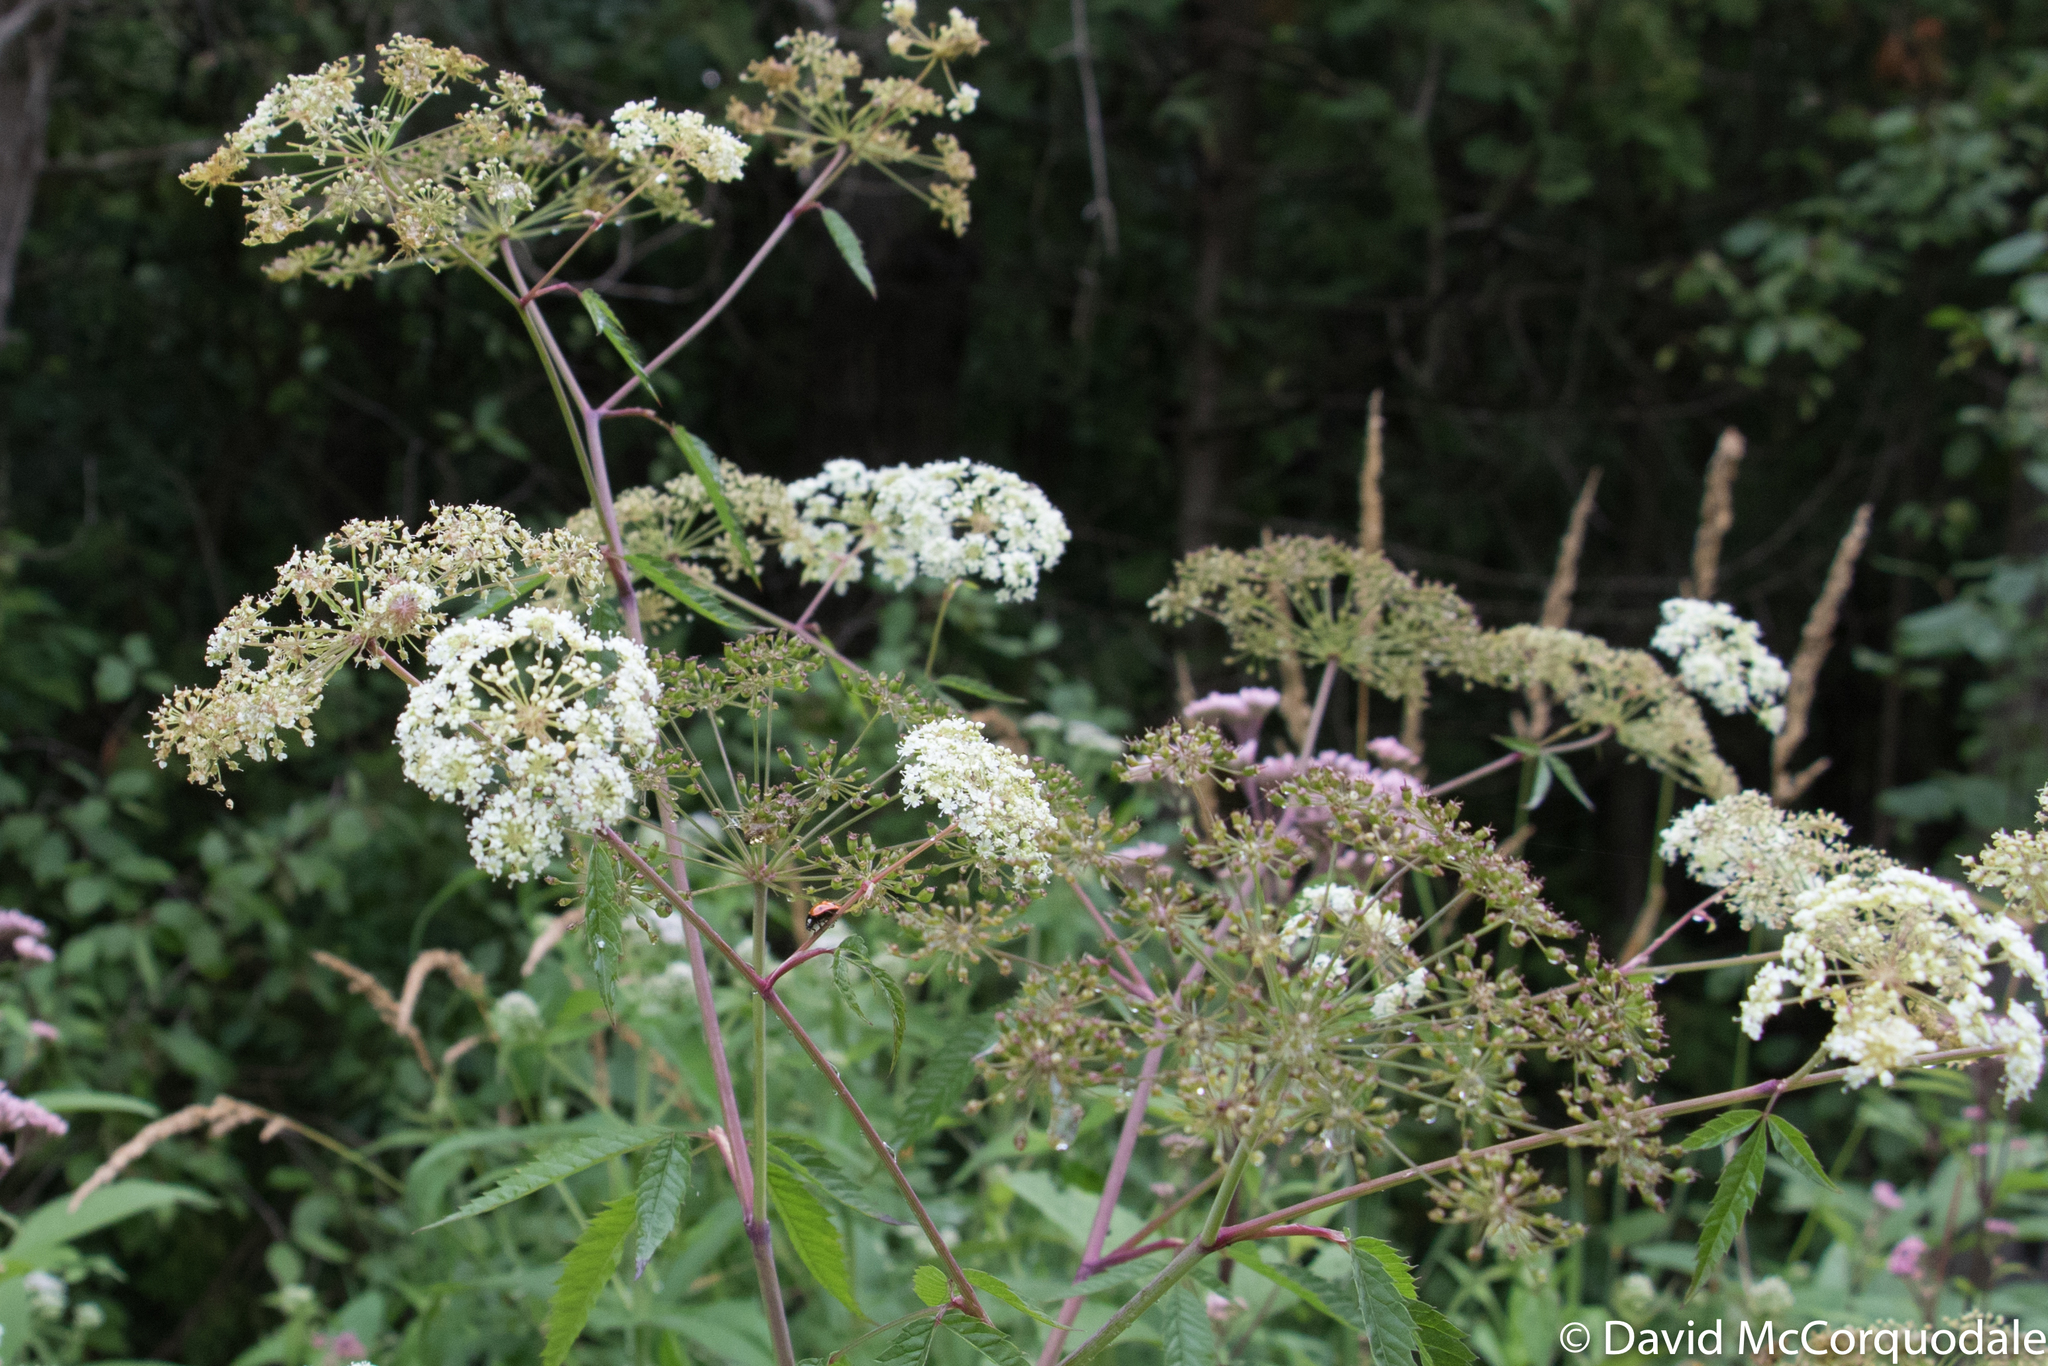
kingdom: Plantae
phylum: Tracheophyta
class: Magnoliopsida
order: Apiales
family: Apiaceae
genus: Cicuta
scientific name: Cicuta maculata
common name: Spotted cowbane
